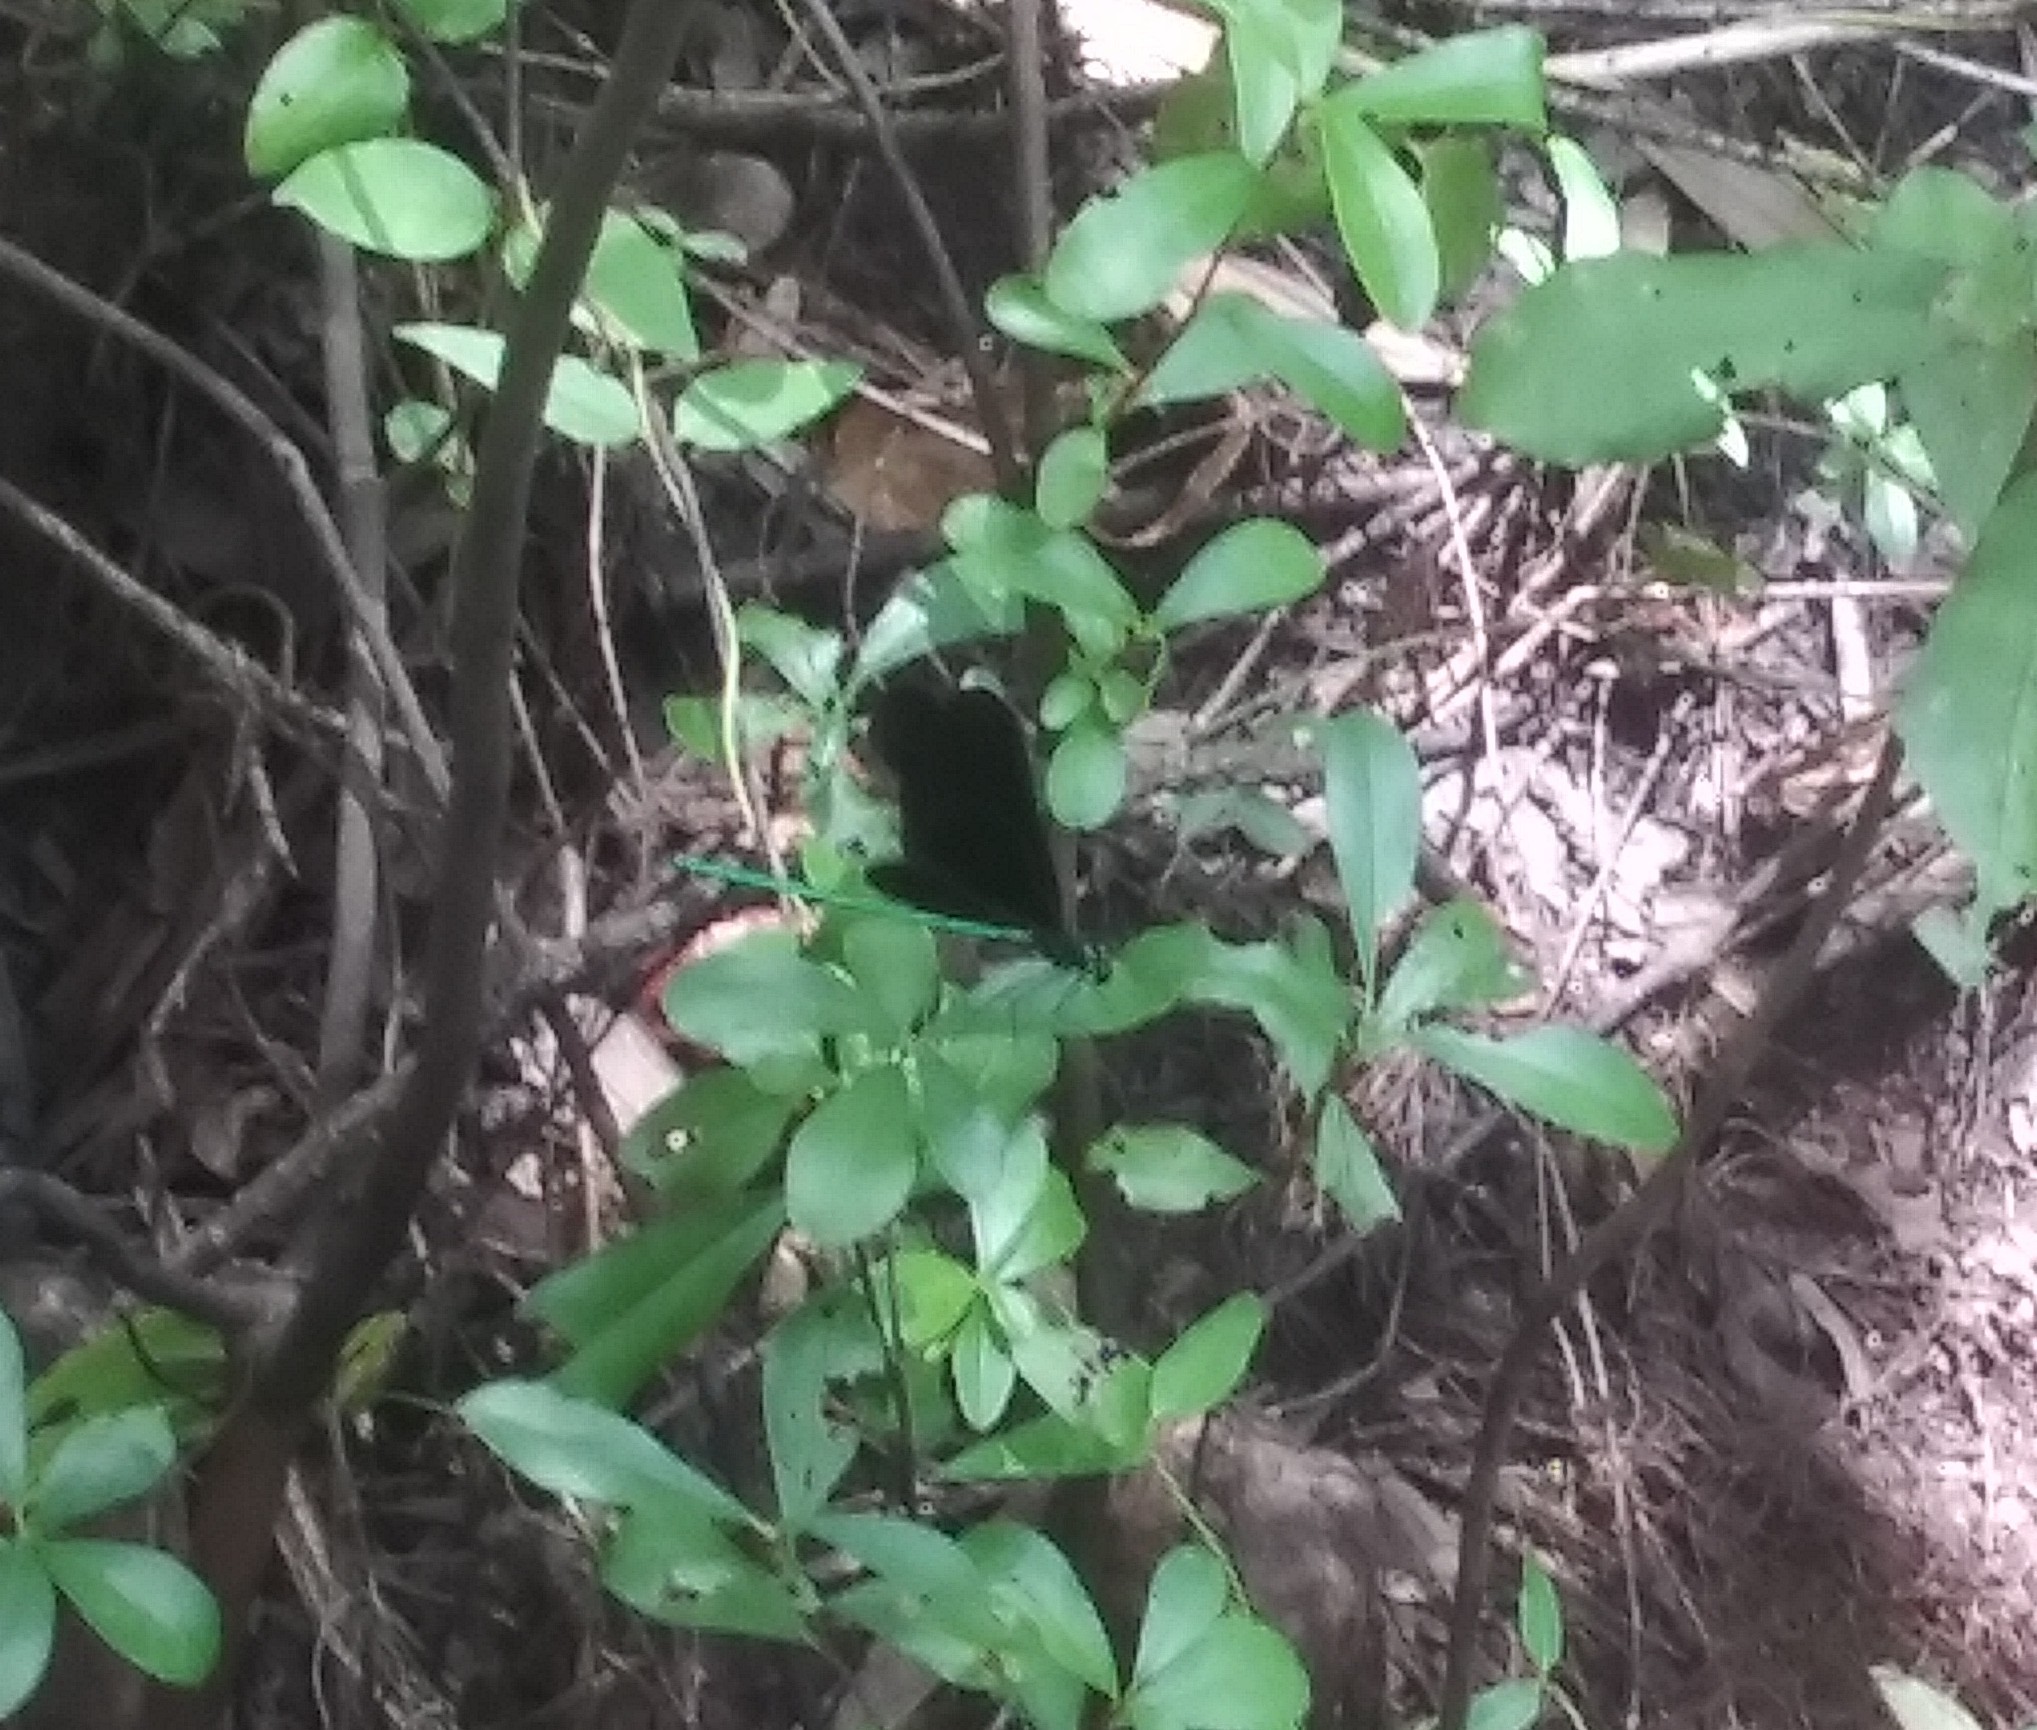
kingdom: Animalia
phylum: Arthropoda
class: Insecta
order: Odonata
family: Calopterygidae
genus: Calopteryx
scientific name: Calopteryx maculata
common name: Ebony jewelwing
